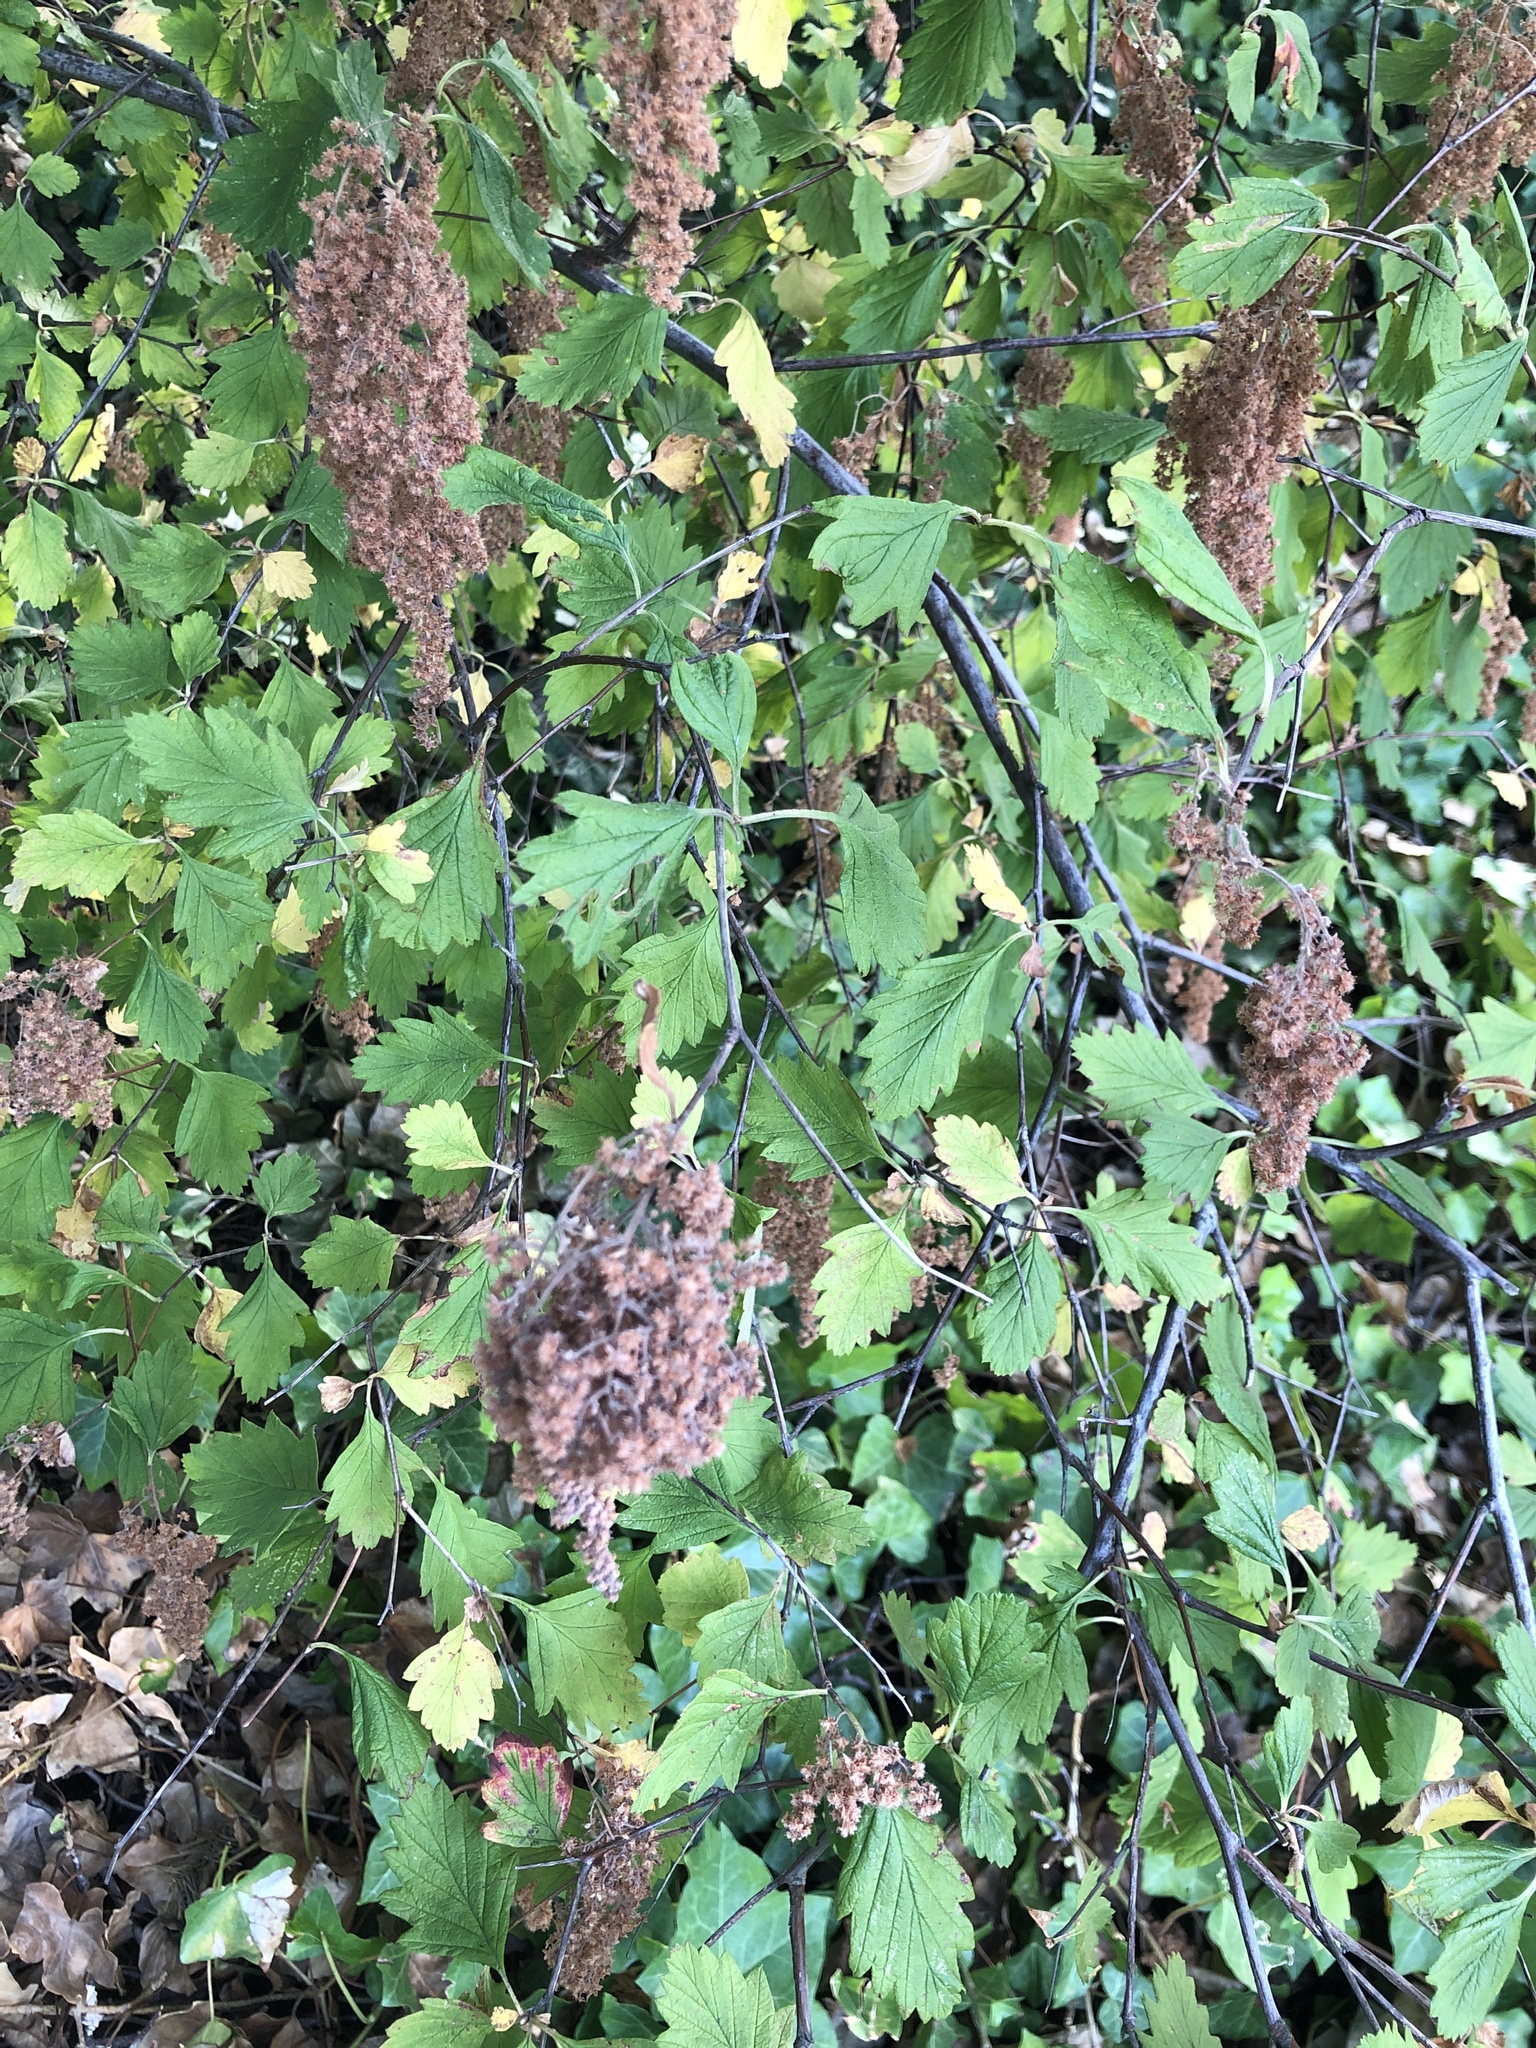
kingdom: Plantae
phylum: Tracheophyta
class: Magnoliopsida
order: Rosales
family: Rosaceae
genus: Holodiscus
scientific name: Holodiscus discolor
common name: Oceanspray
